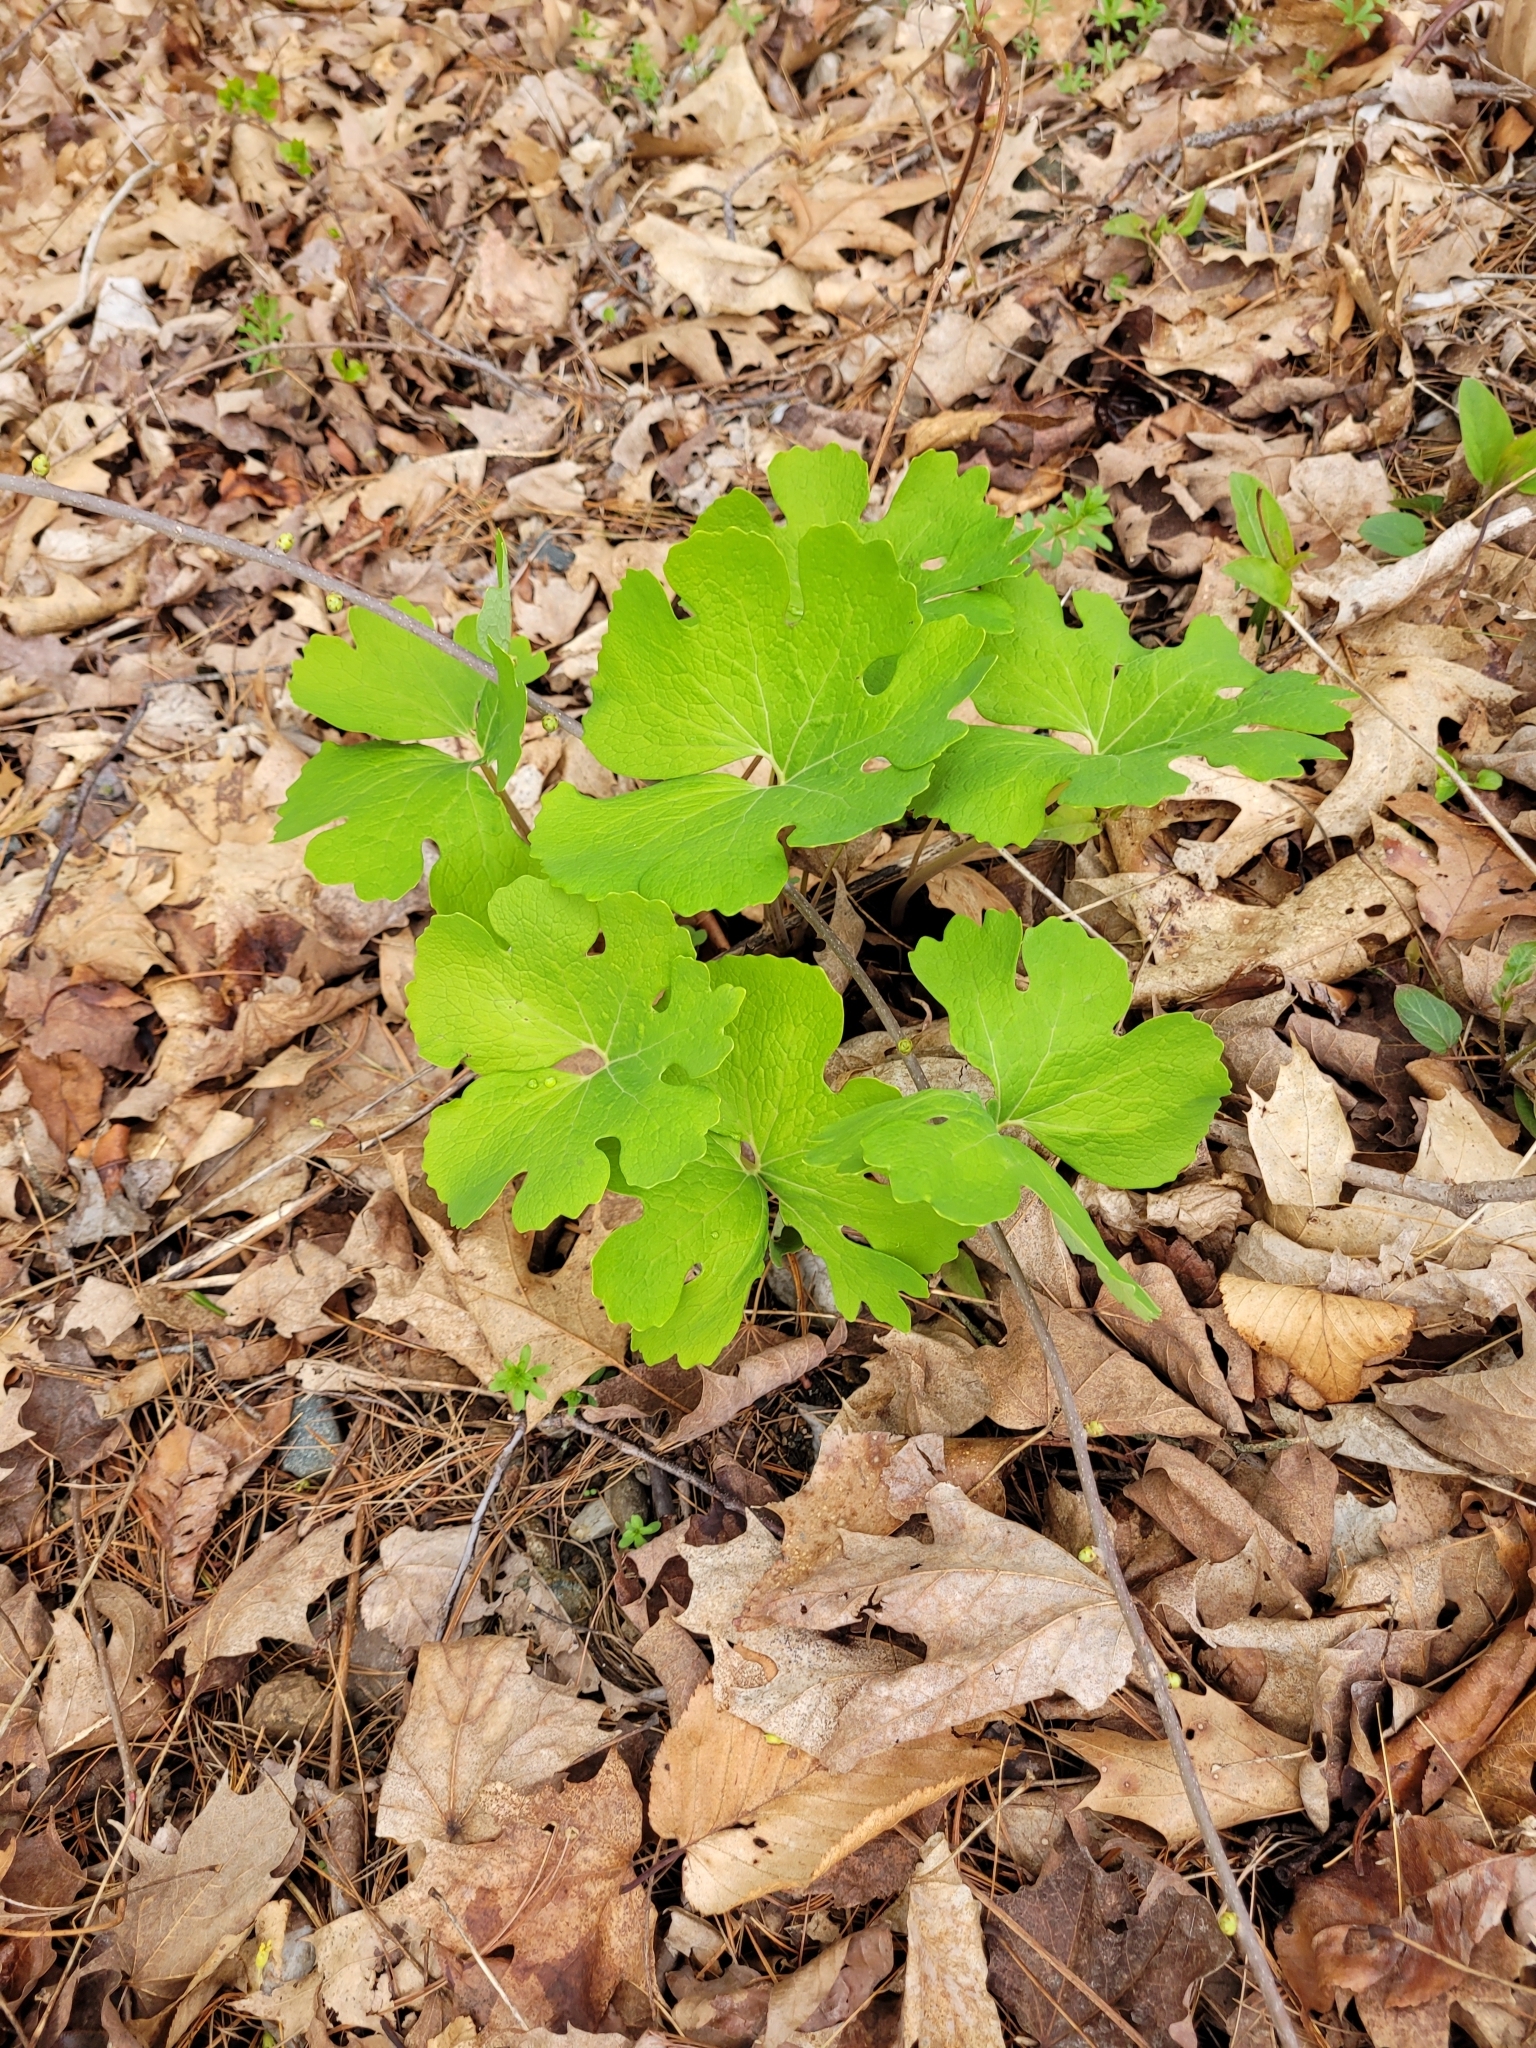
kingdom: Plantae
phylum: Tracheophyta
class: Magnoliopsida
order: Ranunculales
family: Papaveraceae
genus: Sanguinaria
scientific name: Sanguinaria canadensis
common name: Bloodroot
